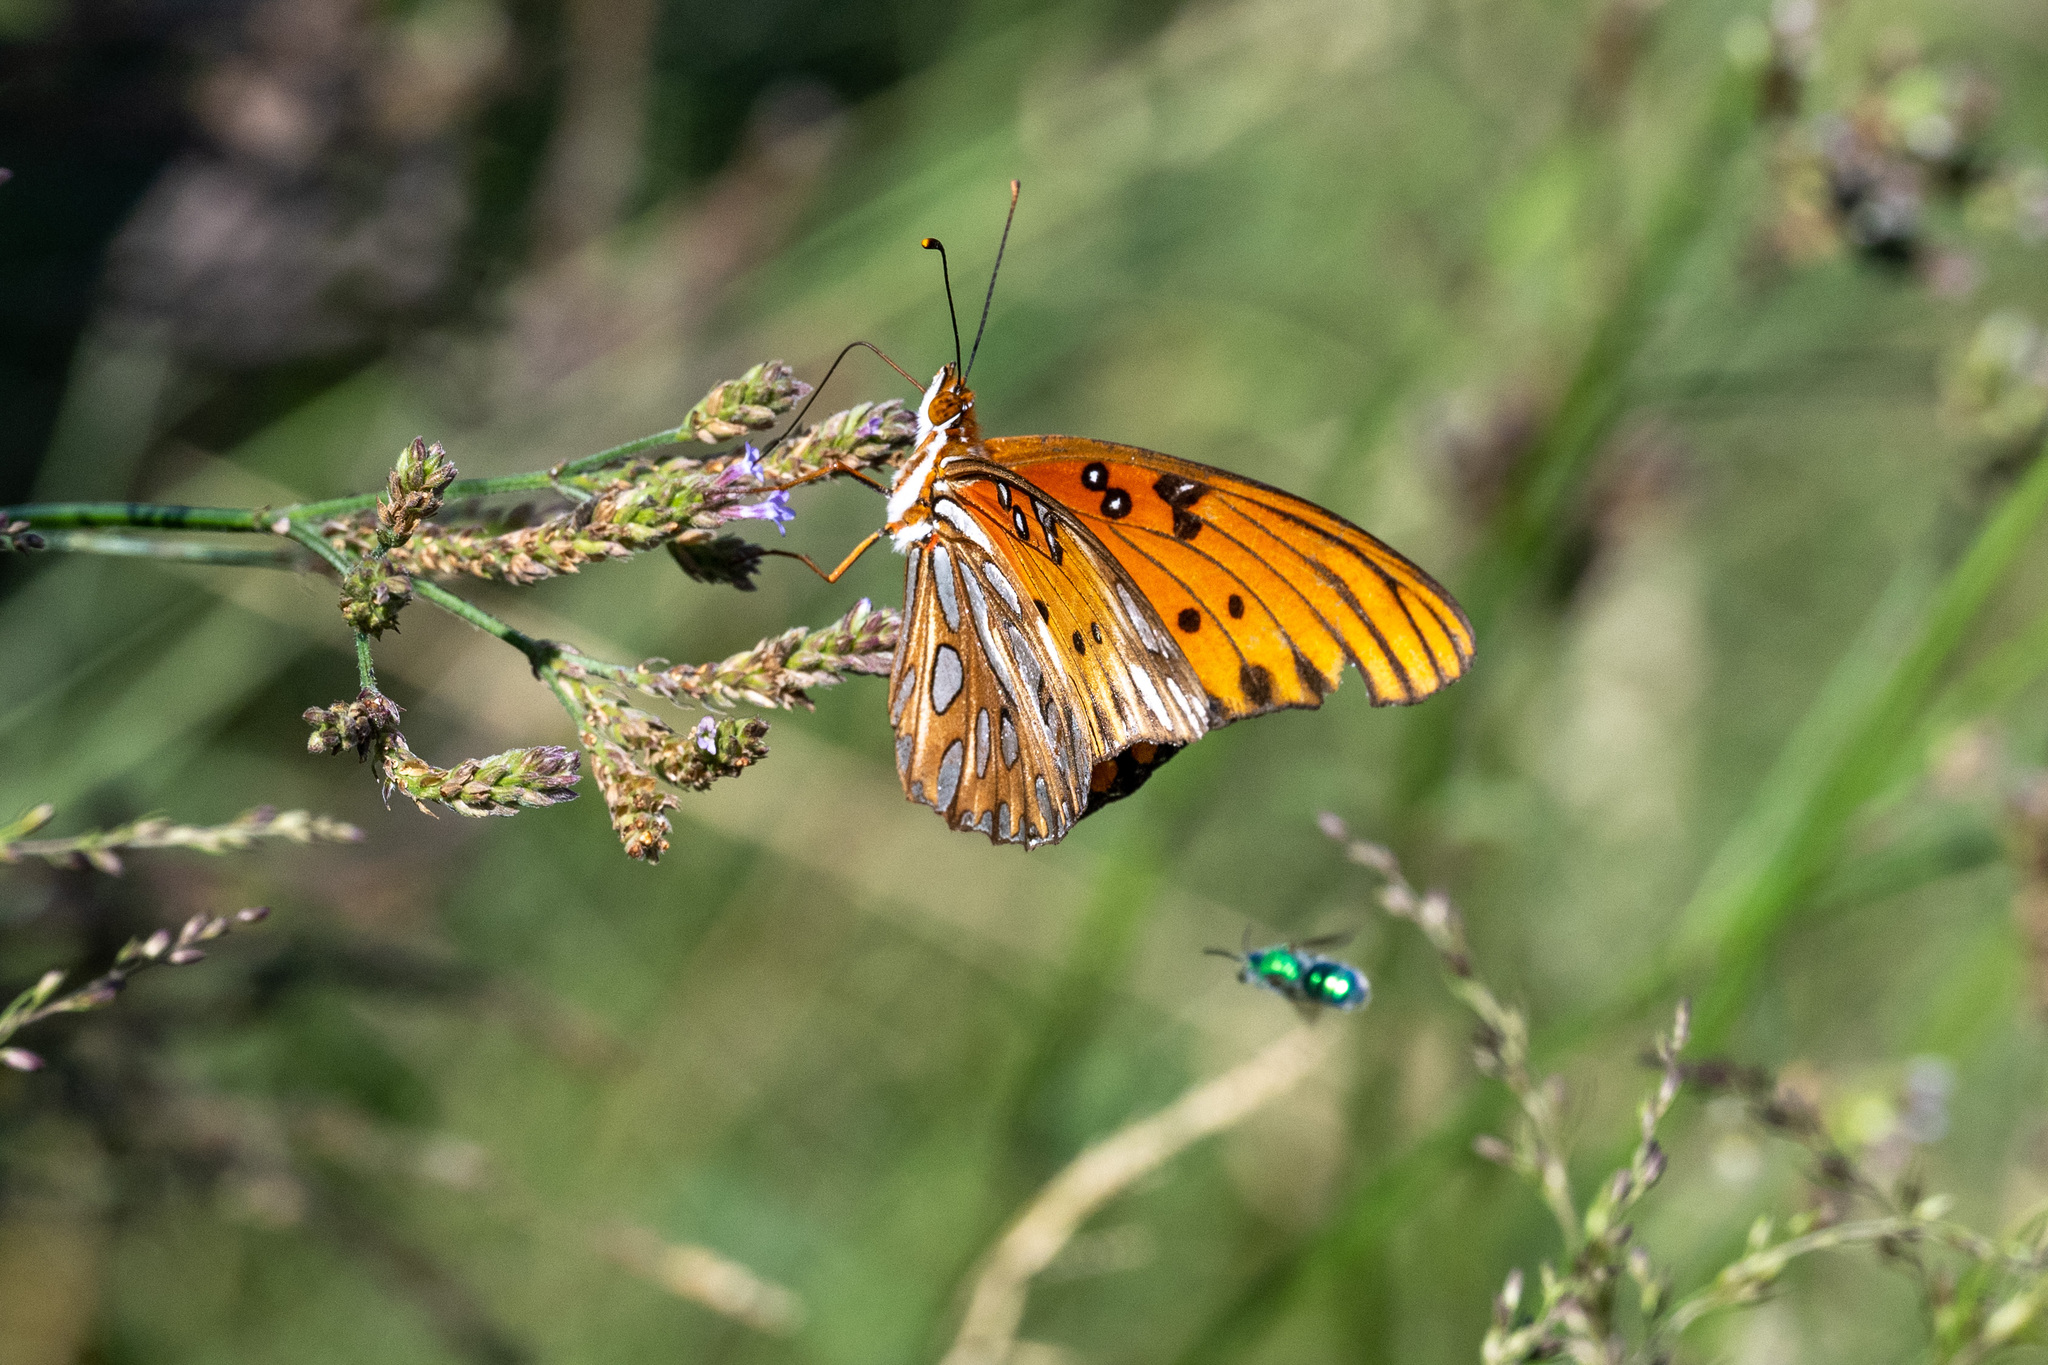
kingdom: Animalia
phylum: Arthropoda
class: Insecta
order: Lepidoptera
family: Nymphalidae
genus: Dione
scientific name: Dione vanillae
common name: Gulf fritillary
